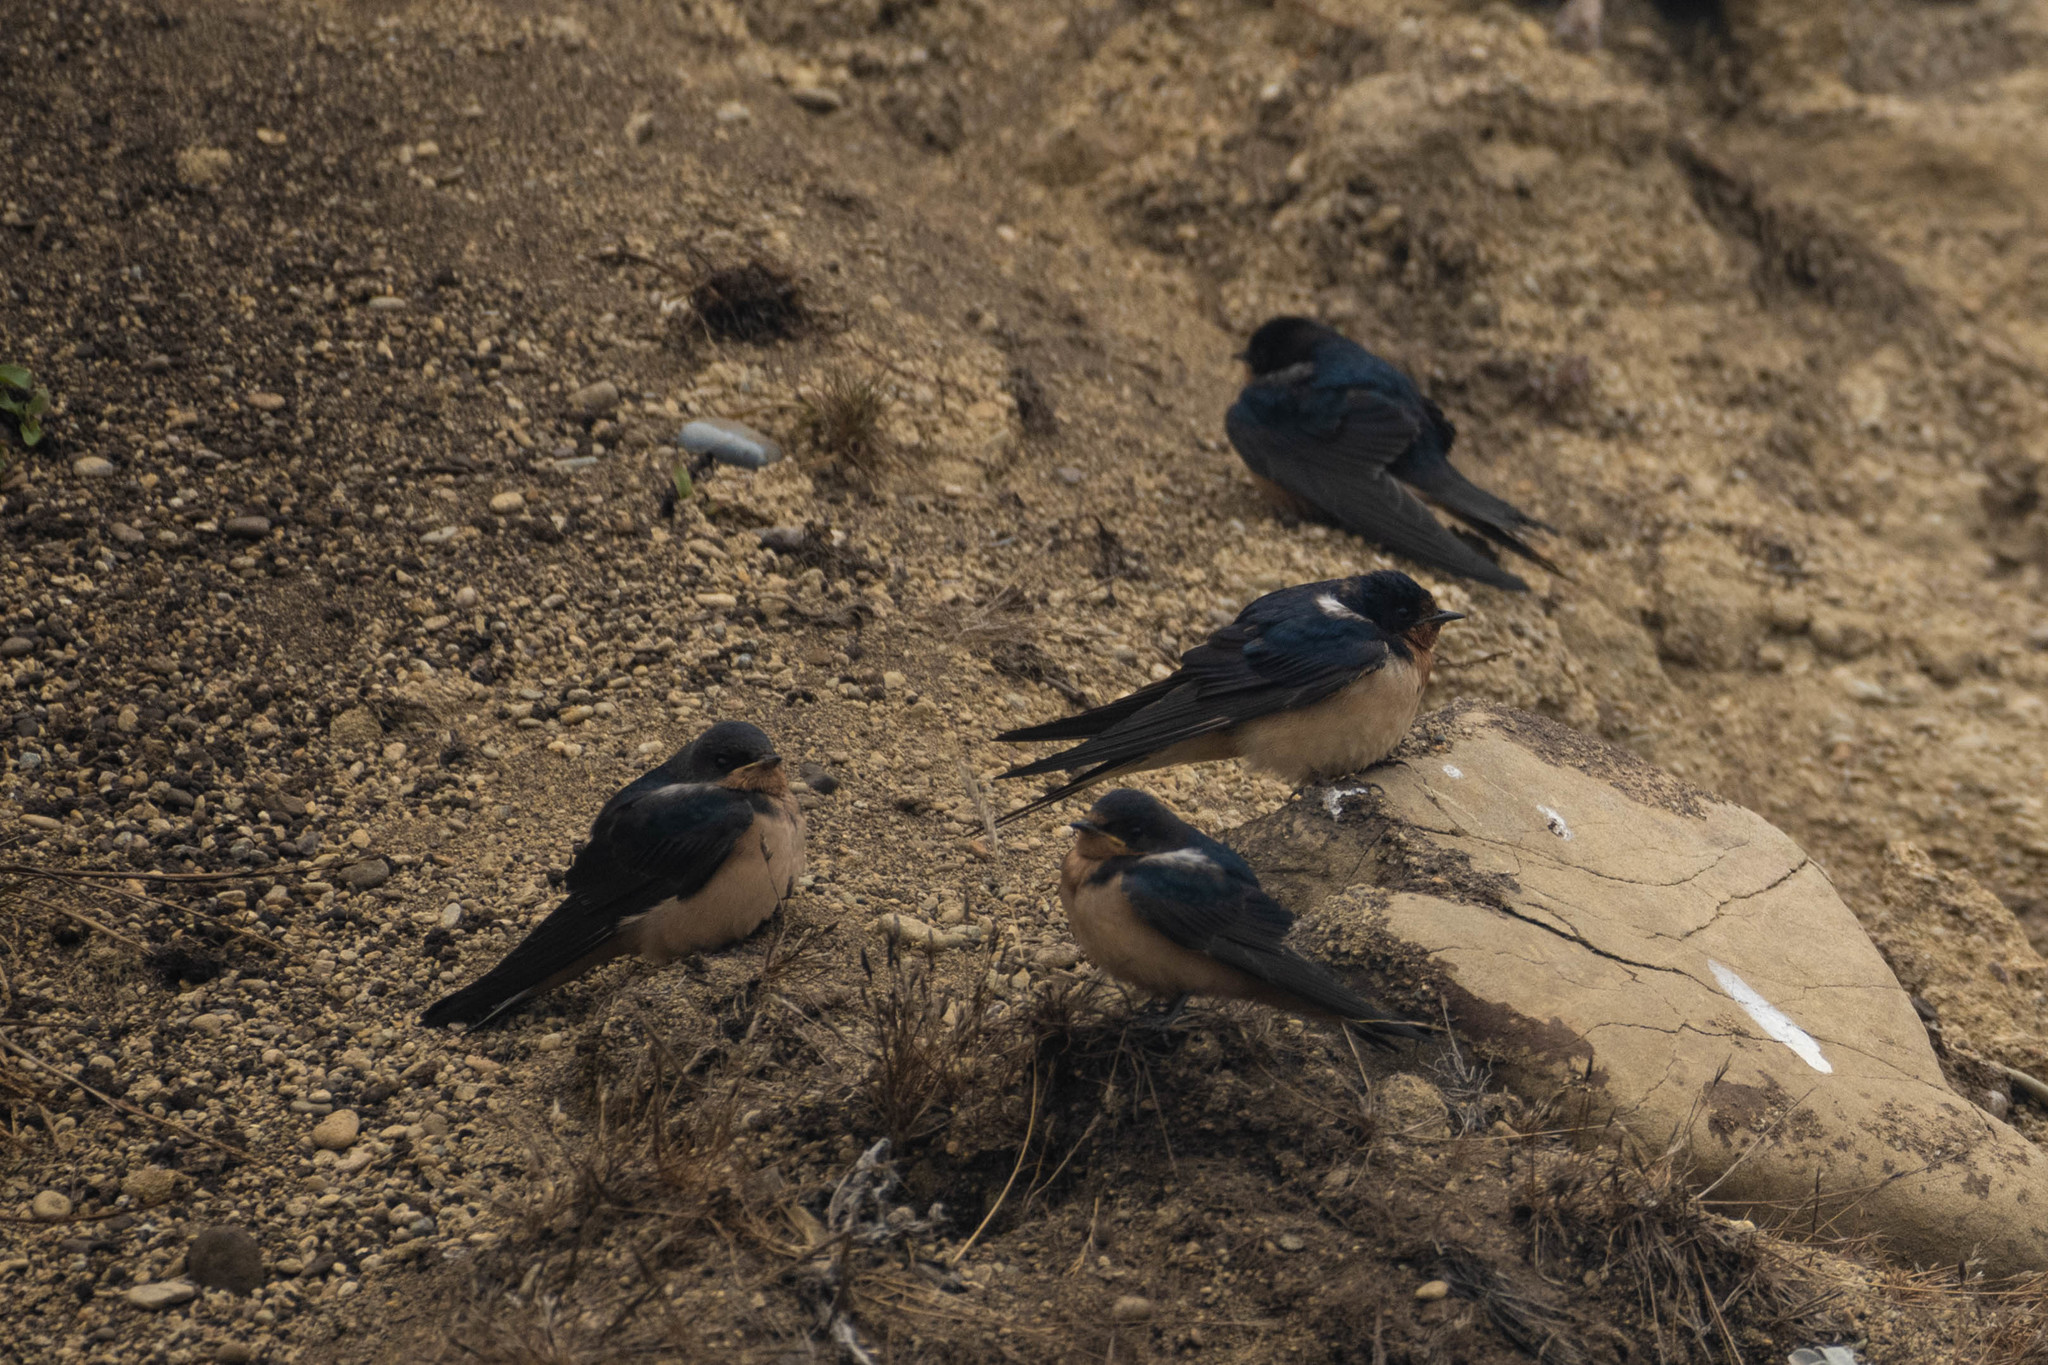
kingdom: Animalia
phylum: Chordata
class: Aves
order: Passeriformes
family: Hirundinidae
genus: Hirundo
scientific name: Hirundo rustica
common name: Barn swallow
